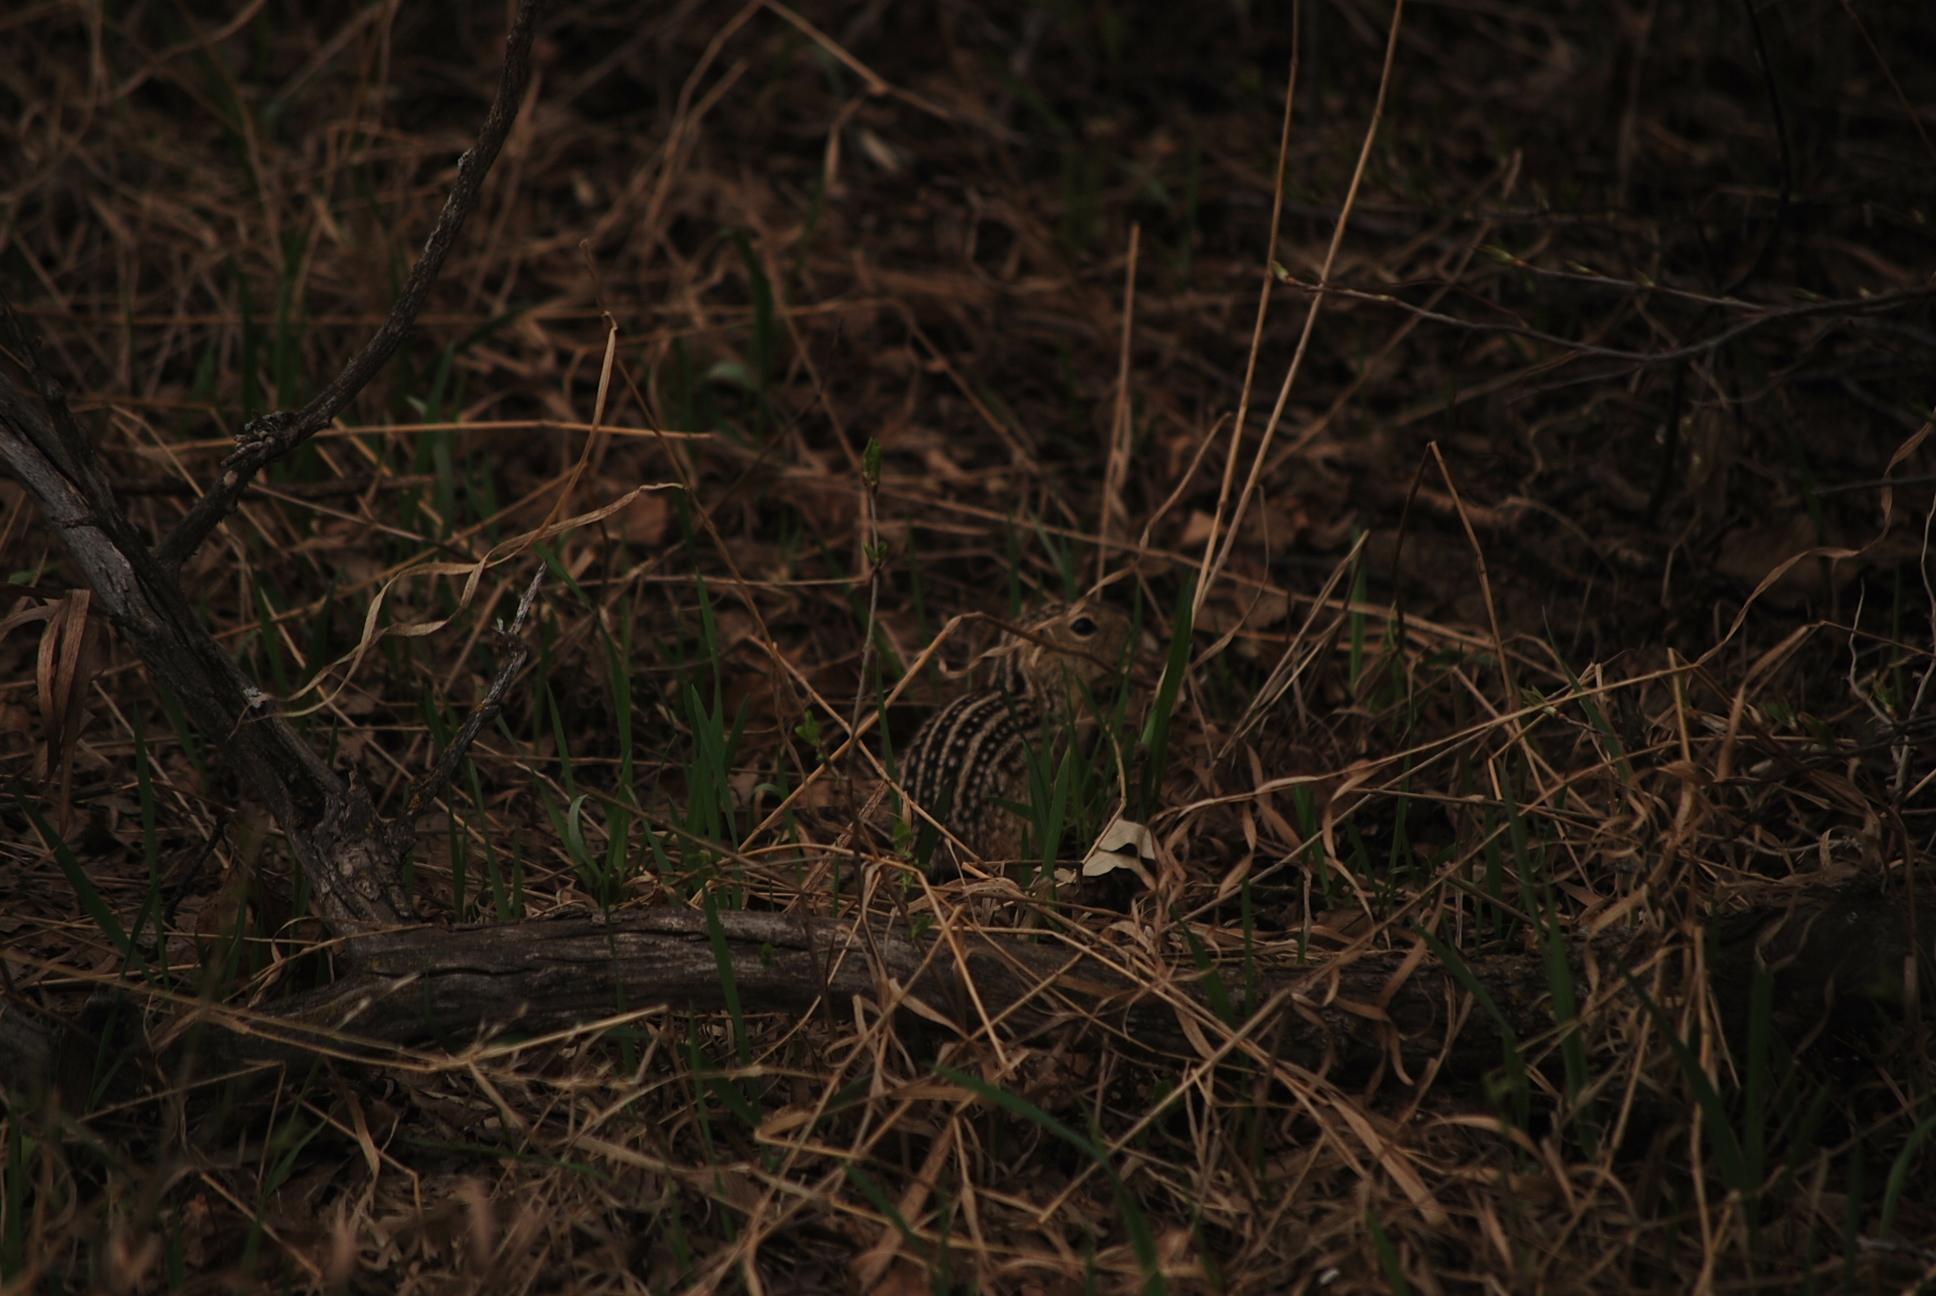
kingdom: Animalia
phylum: Chordata
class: Mammalia
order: Rodentia
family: Sciuridae
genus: Ictidomys
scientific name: Ictidomys tridecemlineatus
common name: Thirteen-lined ground squirrel
